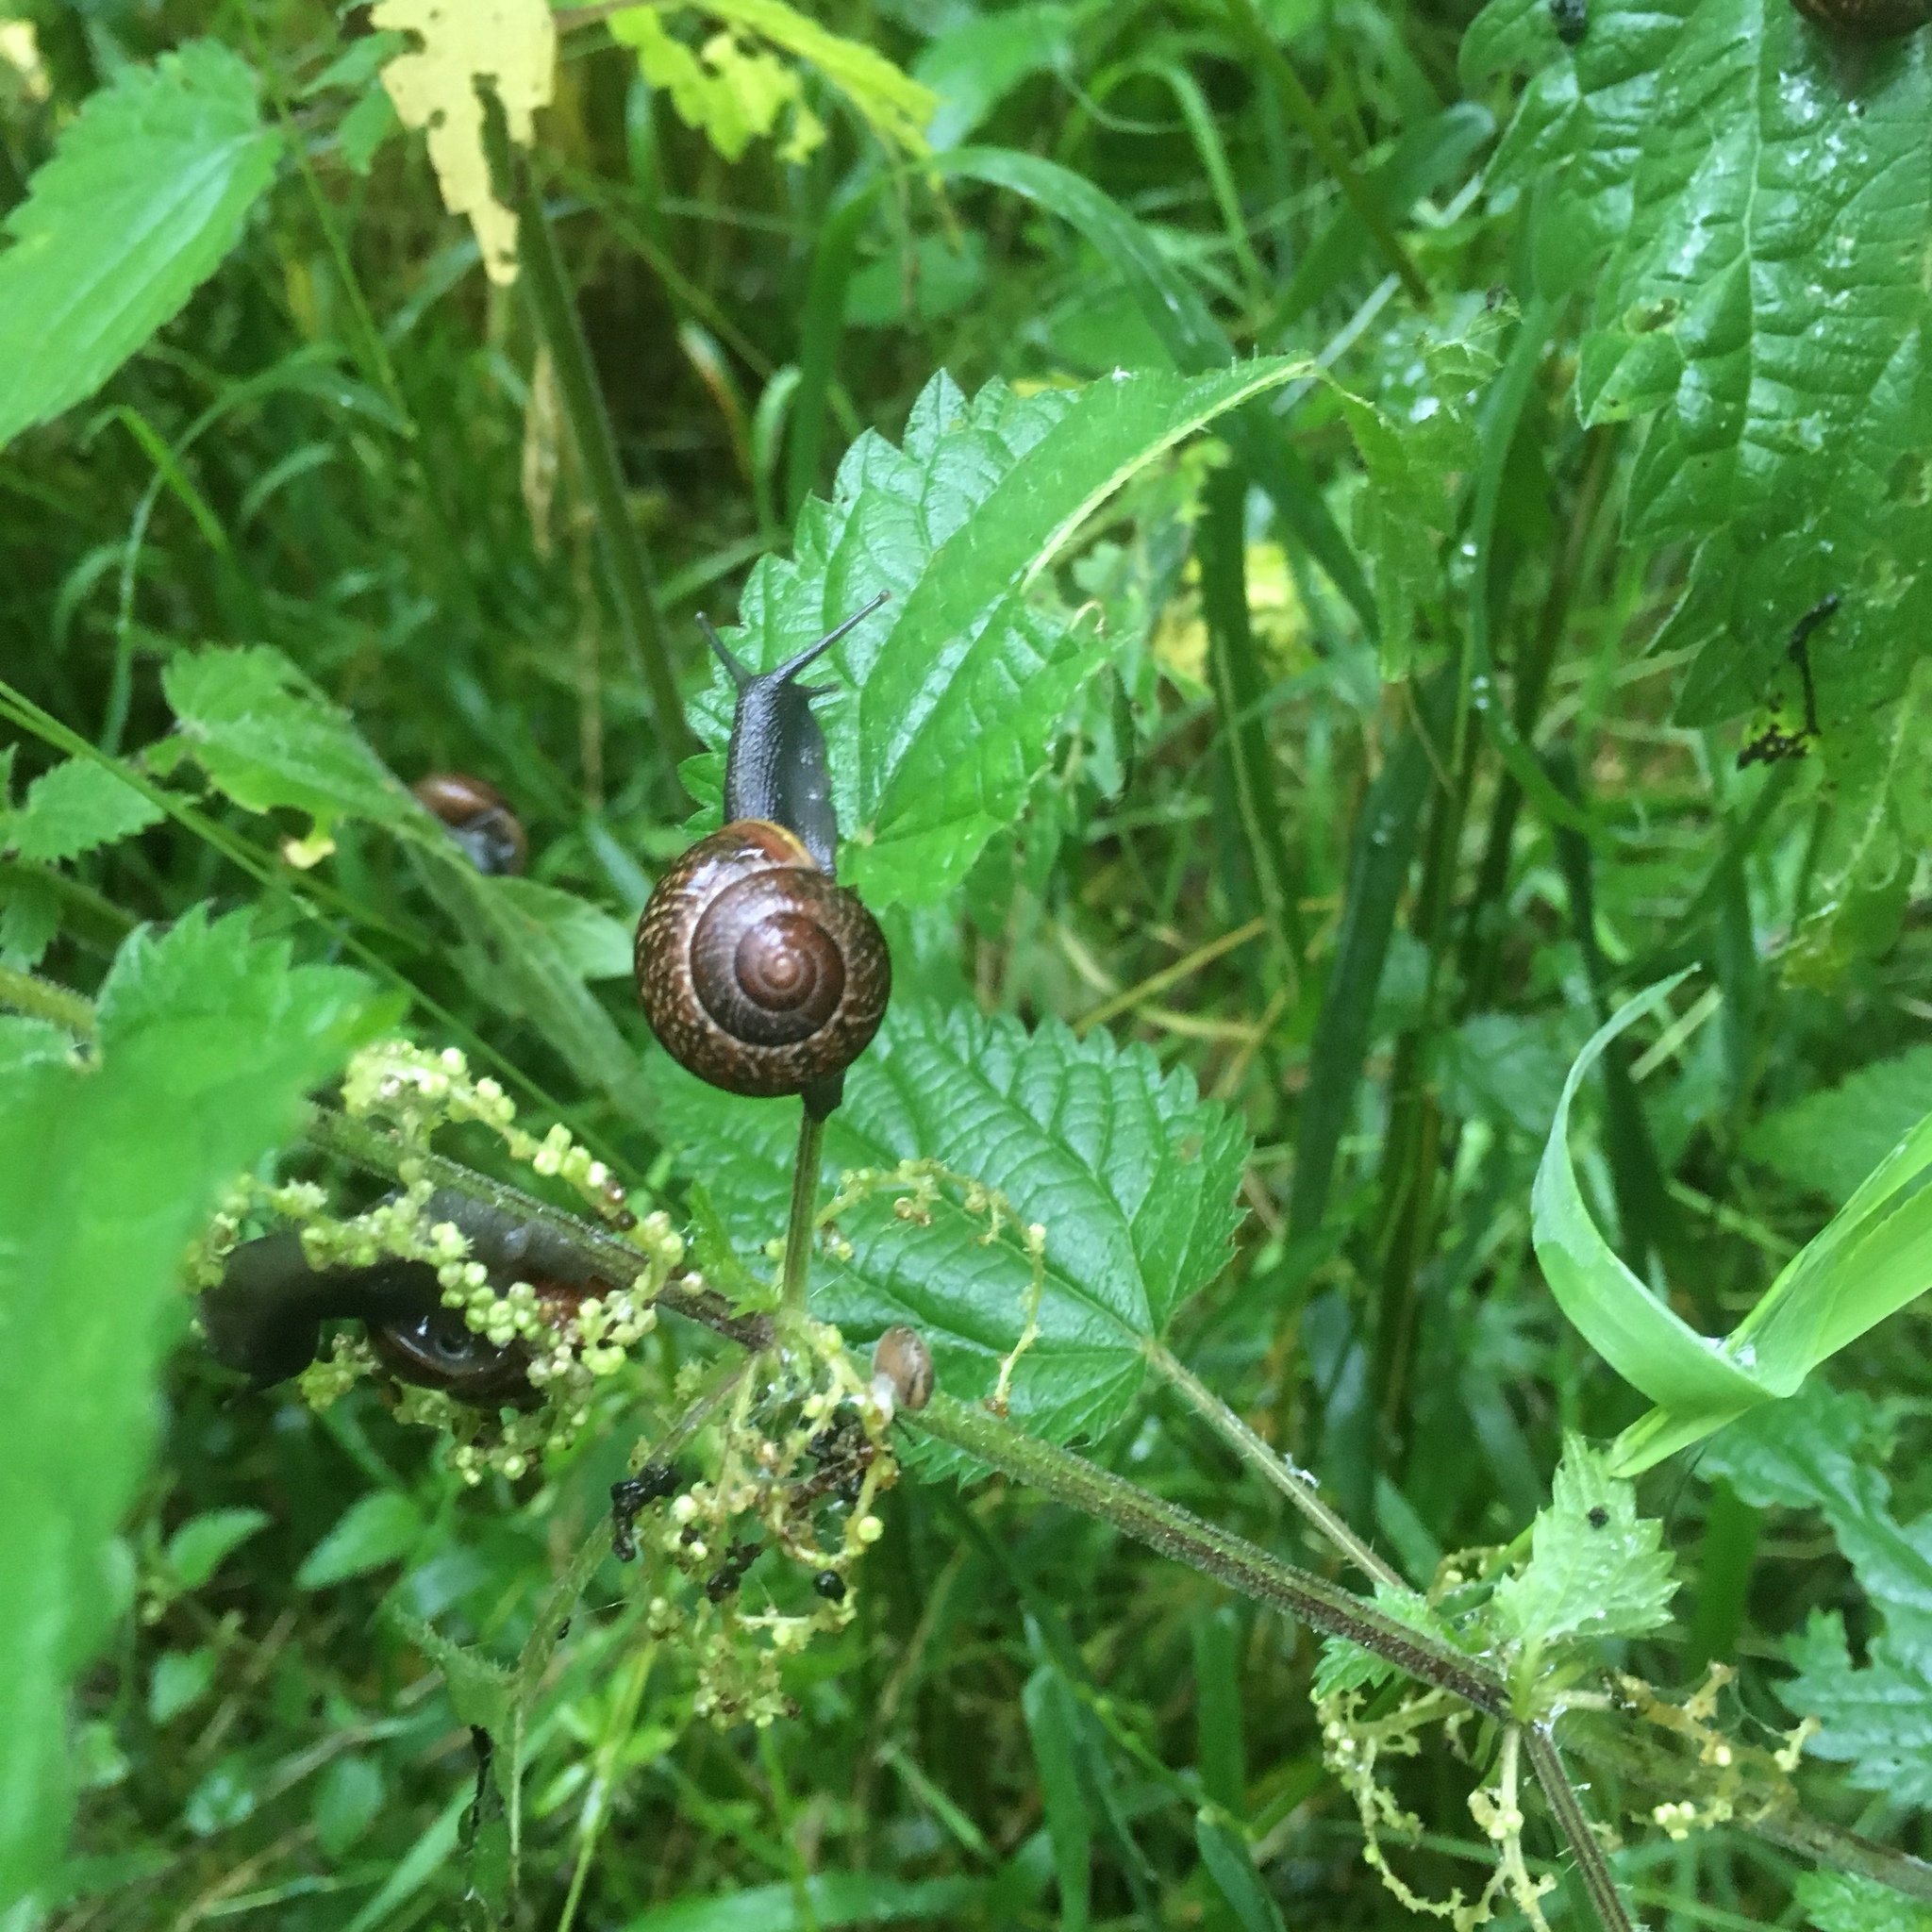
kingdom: Animalia
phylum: Mollusca
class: Gastropoda
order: Stylommatophora
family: Helicidae
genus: Arianta
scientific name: Arianta arbustorum
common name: Copse snail
